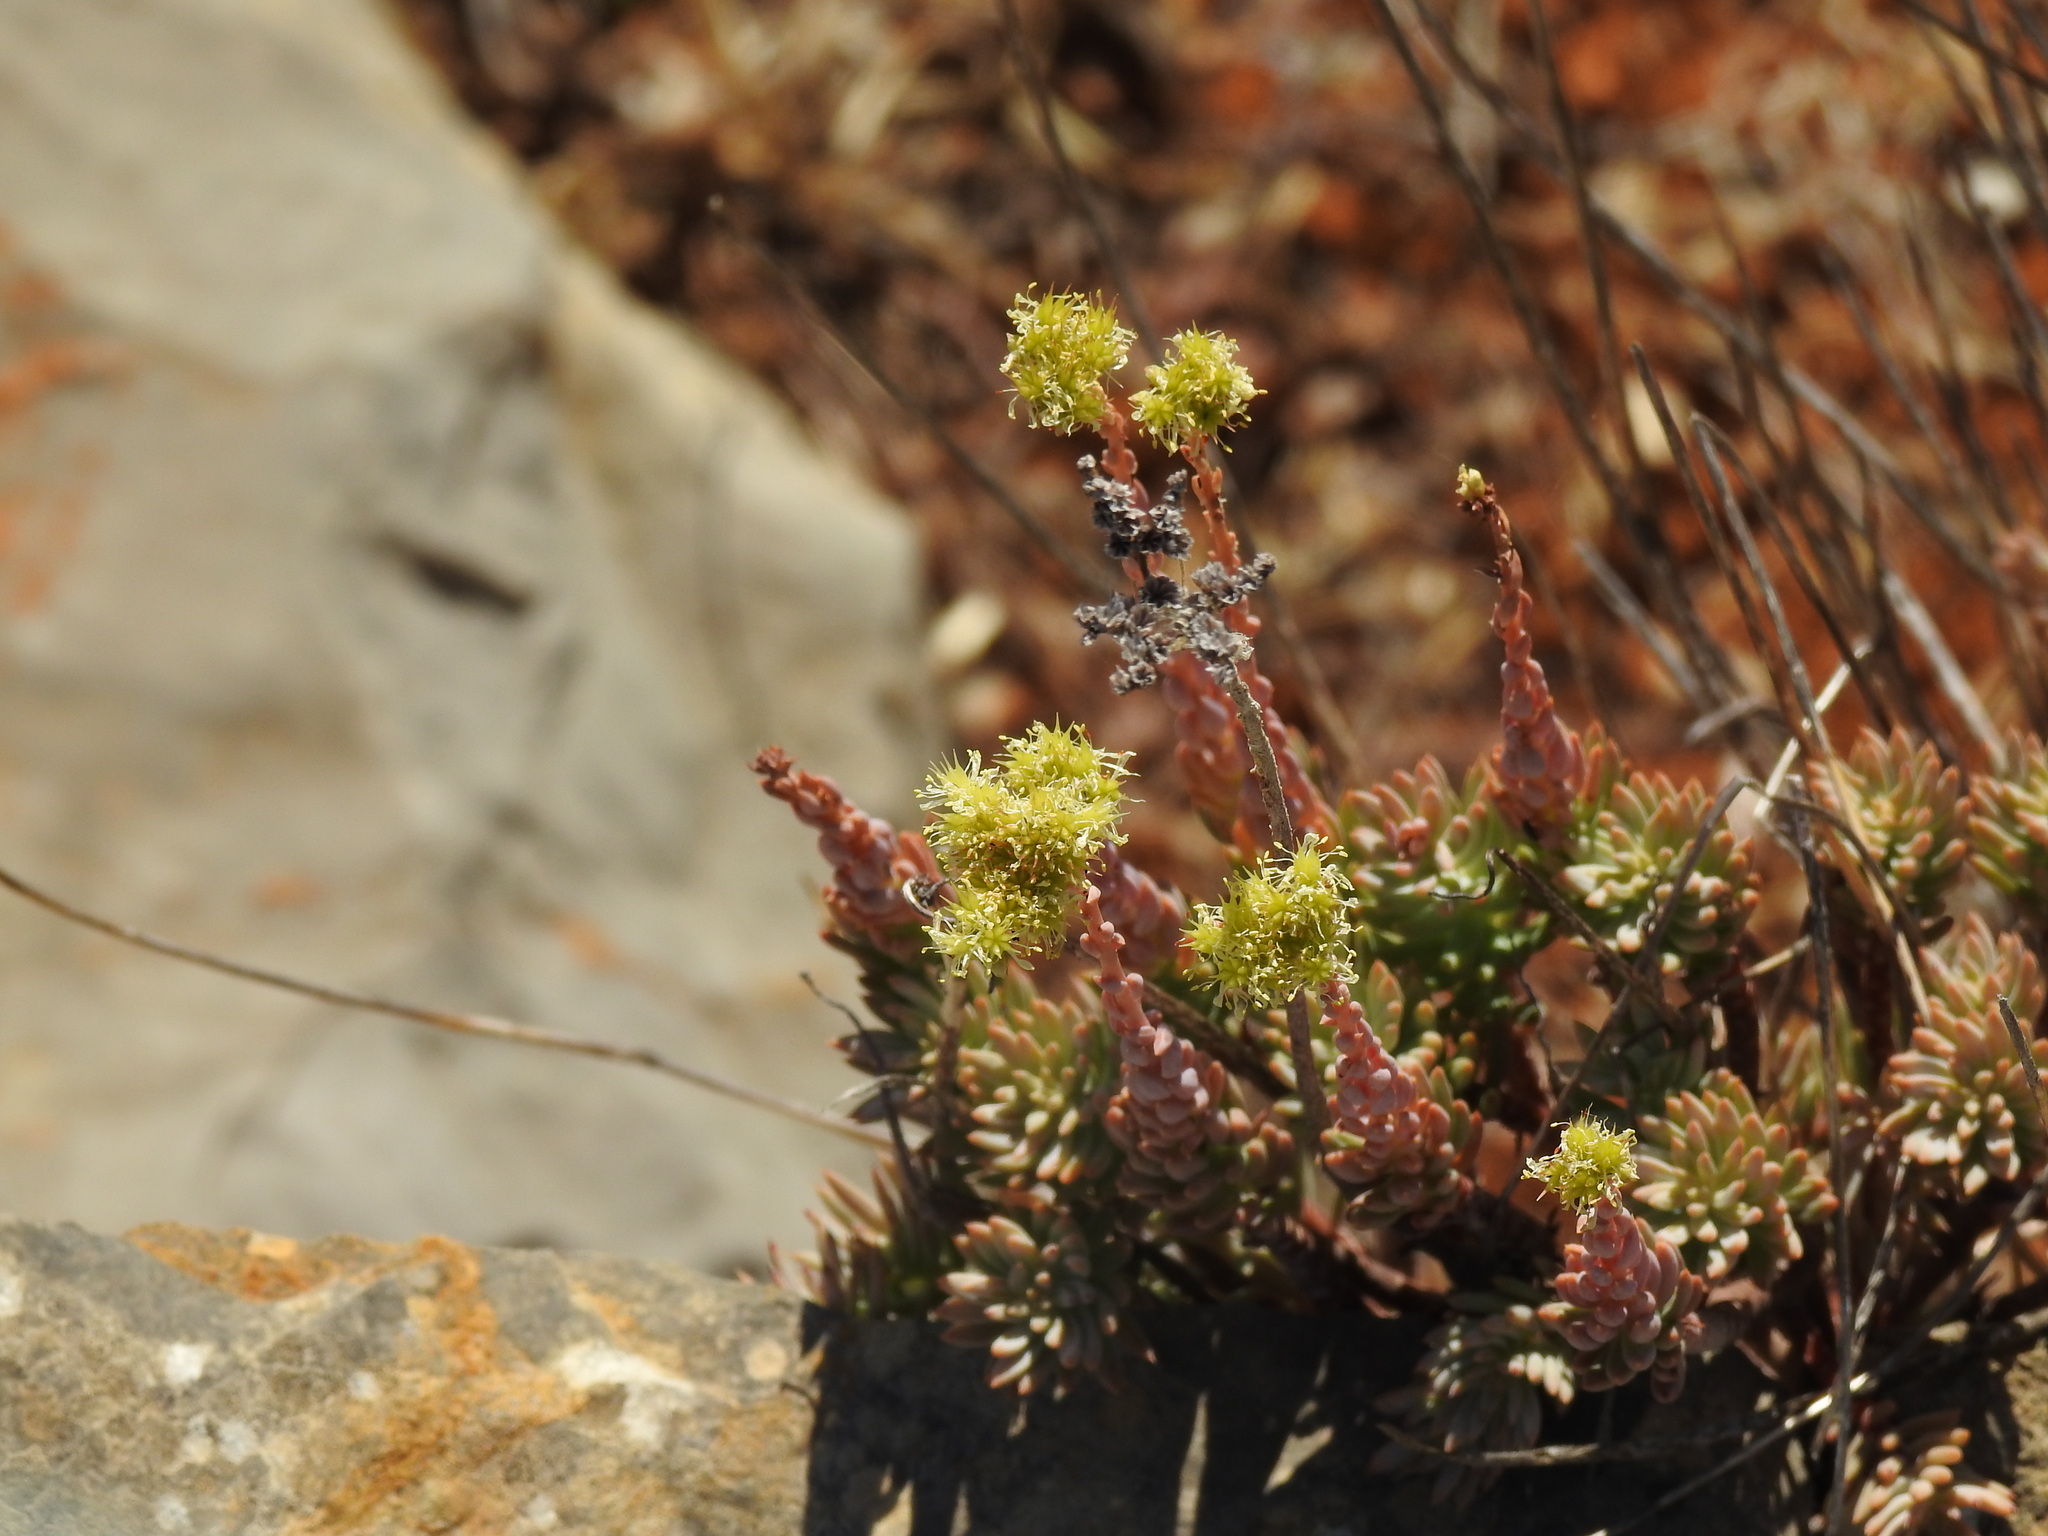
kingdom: Plantae
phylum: Tracheophyta
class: Magnoliopsida
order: Saxifragales
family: Crassulaceae
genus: Petrosedum
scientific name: Petrosedum sediforme
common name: Pale stonecrop
